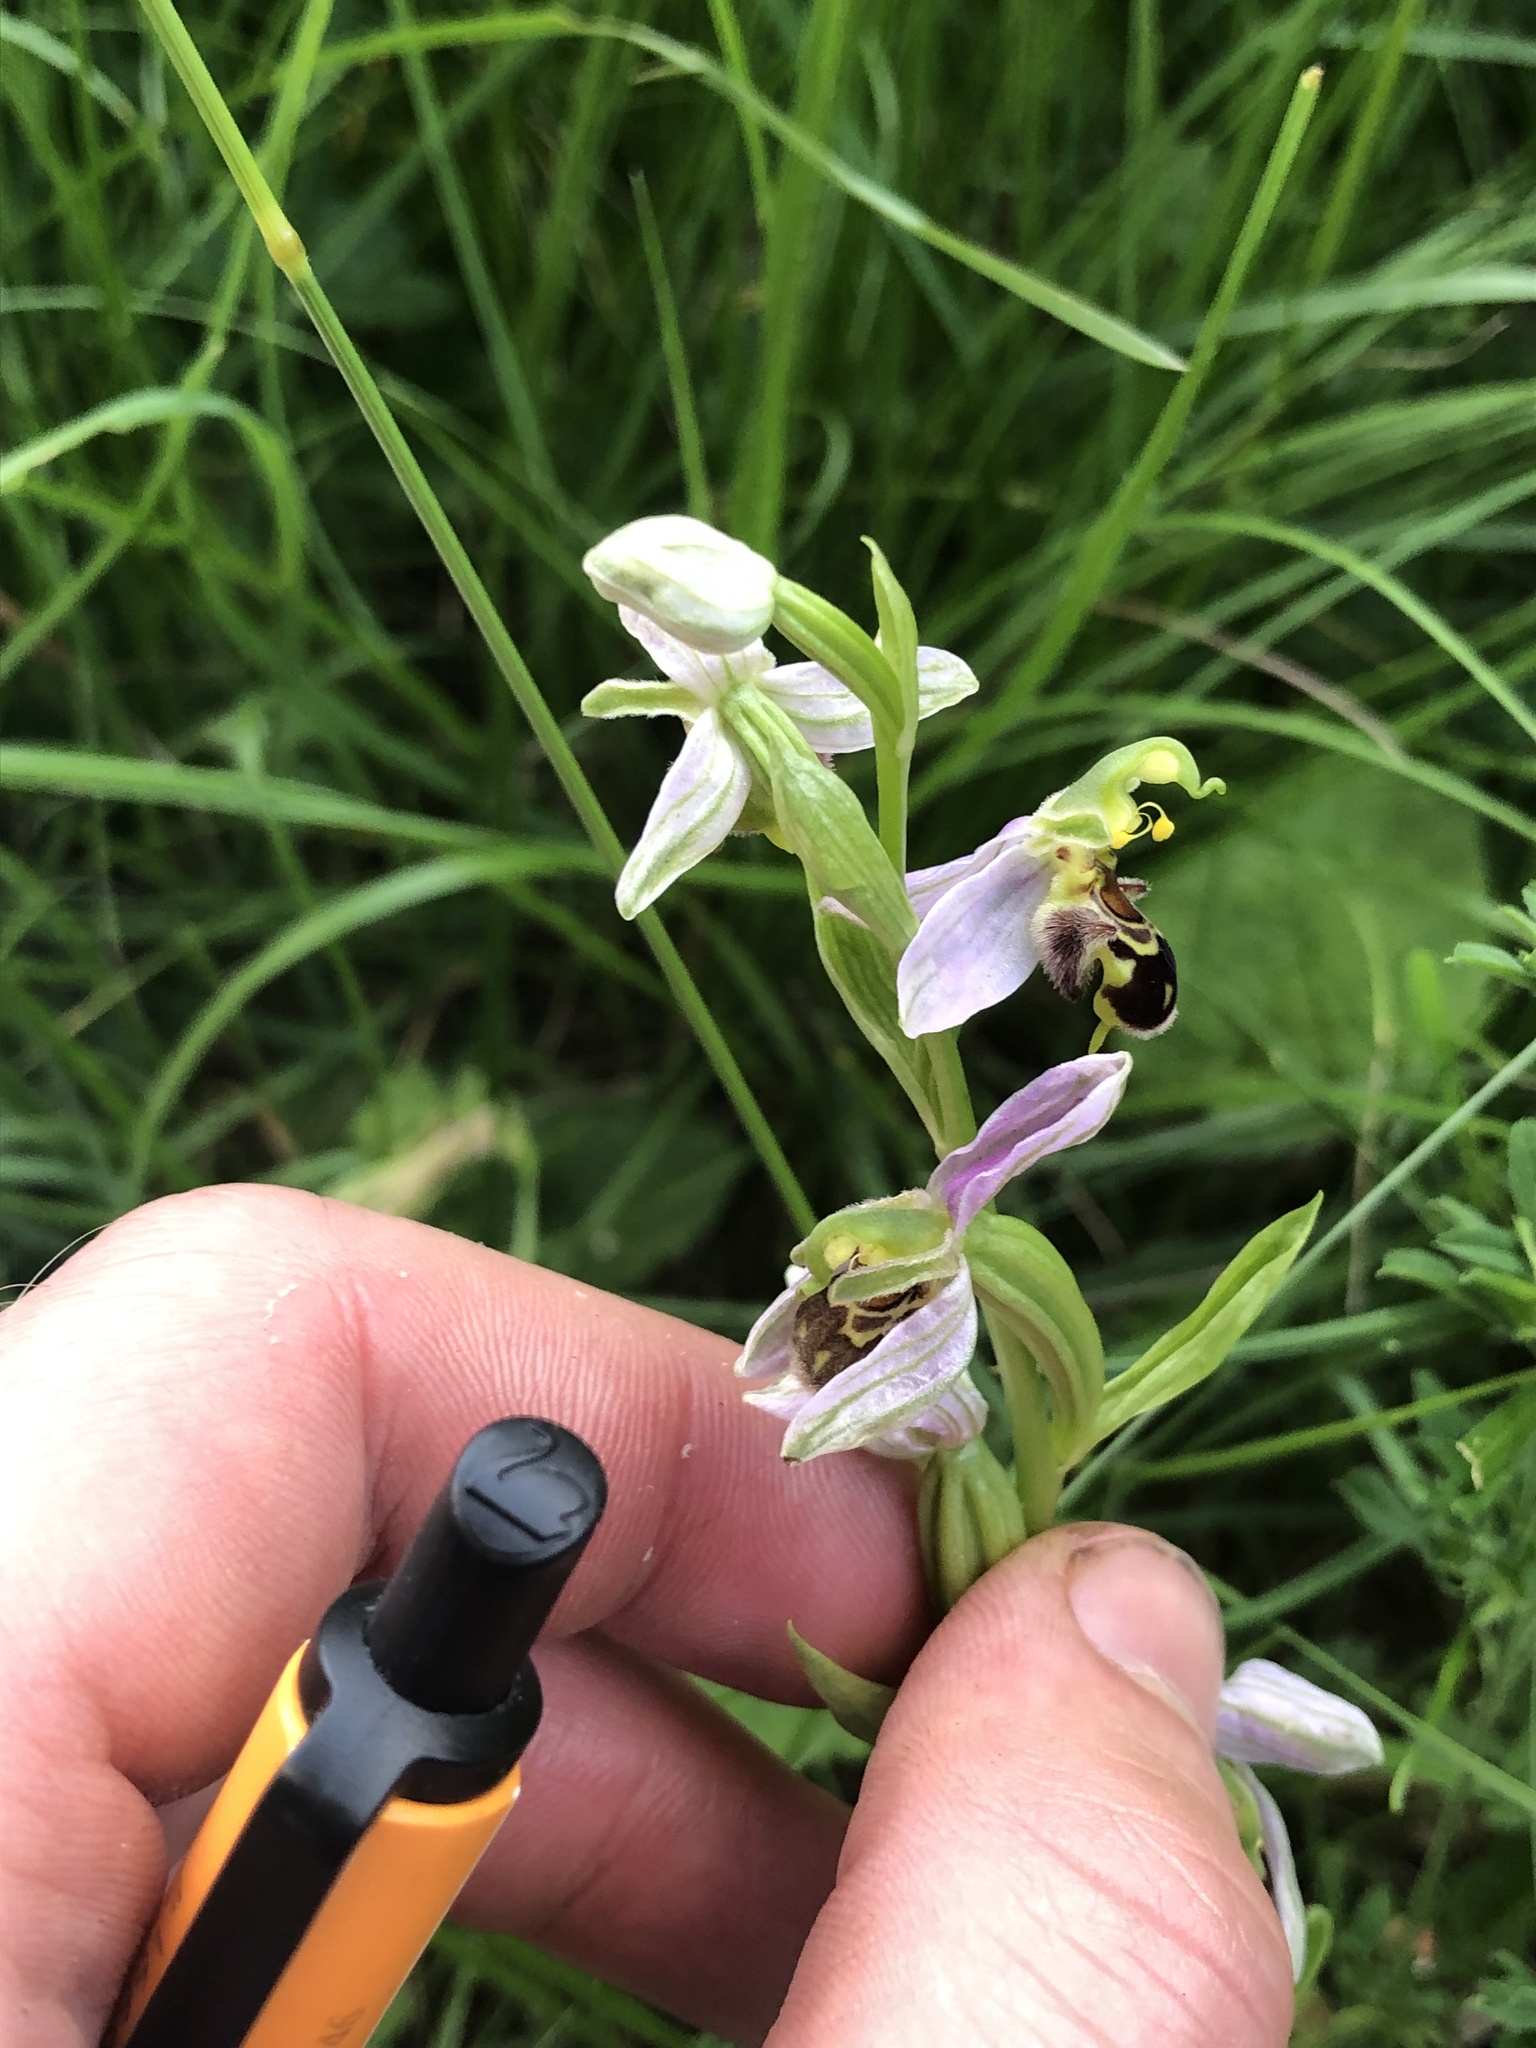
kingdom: Plantae
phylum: Tracheophyta
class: Liliopsida
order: Asparagales
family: Orchidaceae
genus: Ophrys
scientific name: Ophrys apifera
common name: Bee orchid
